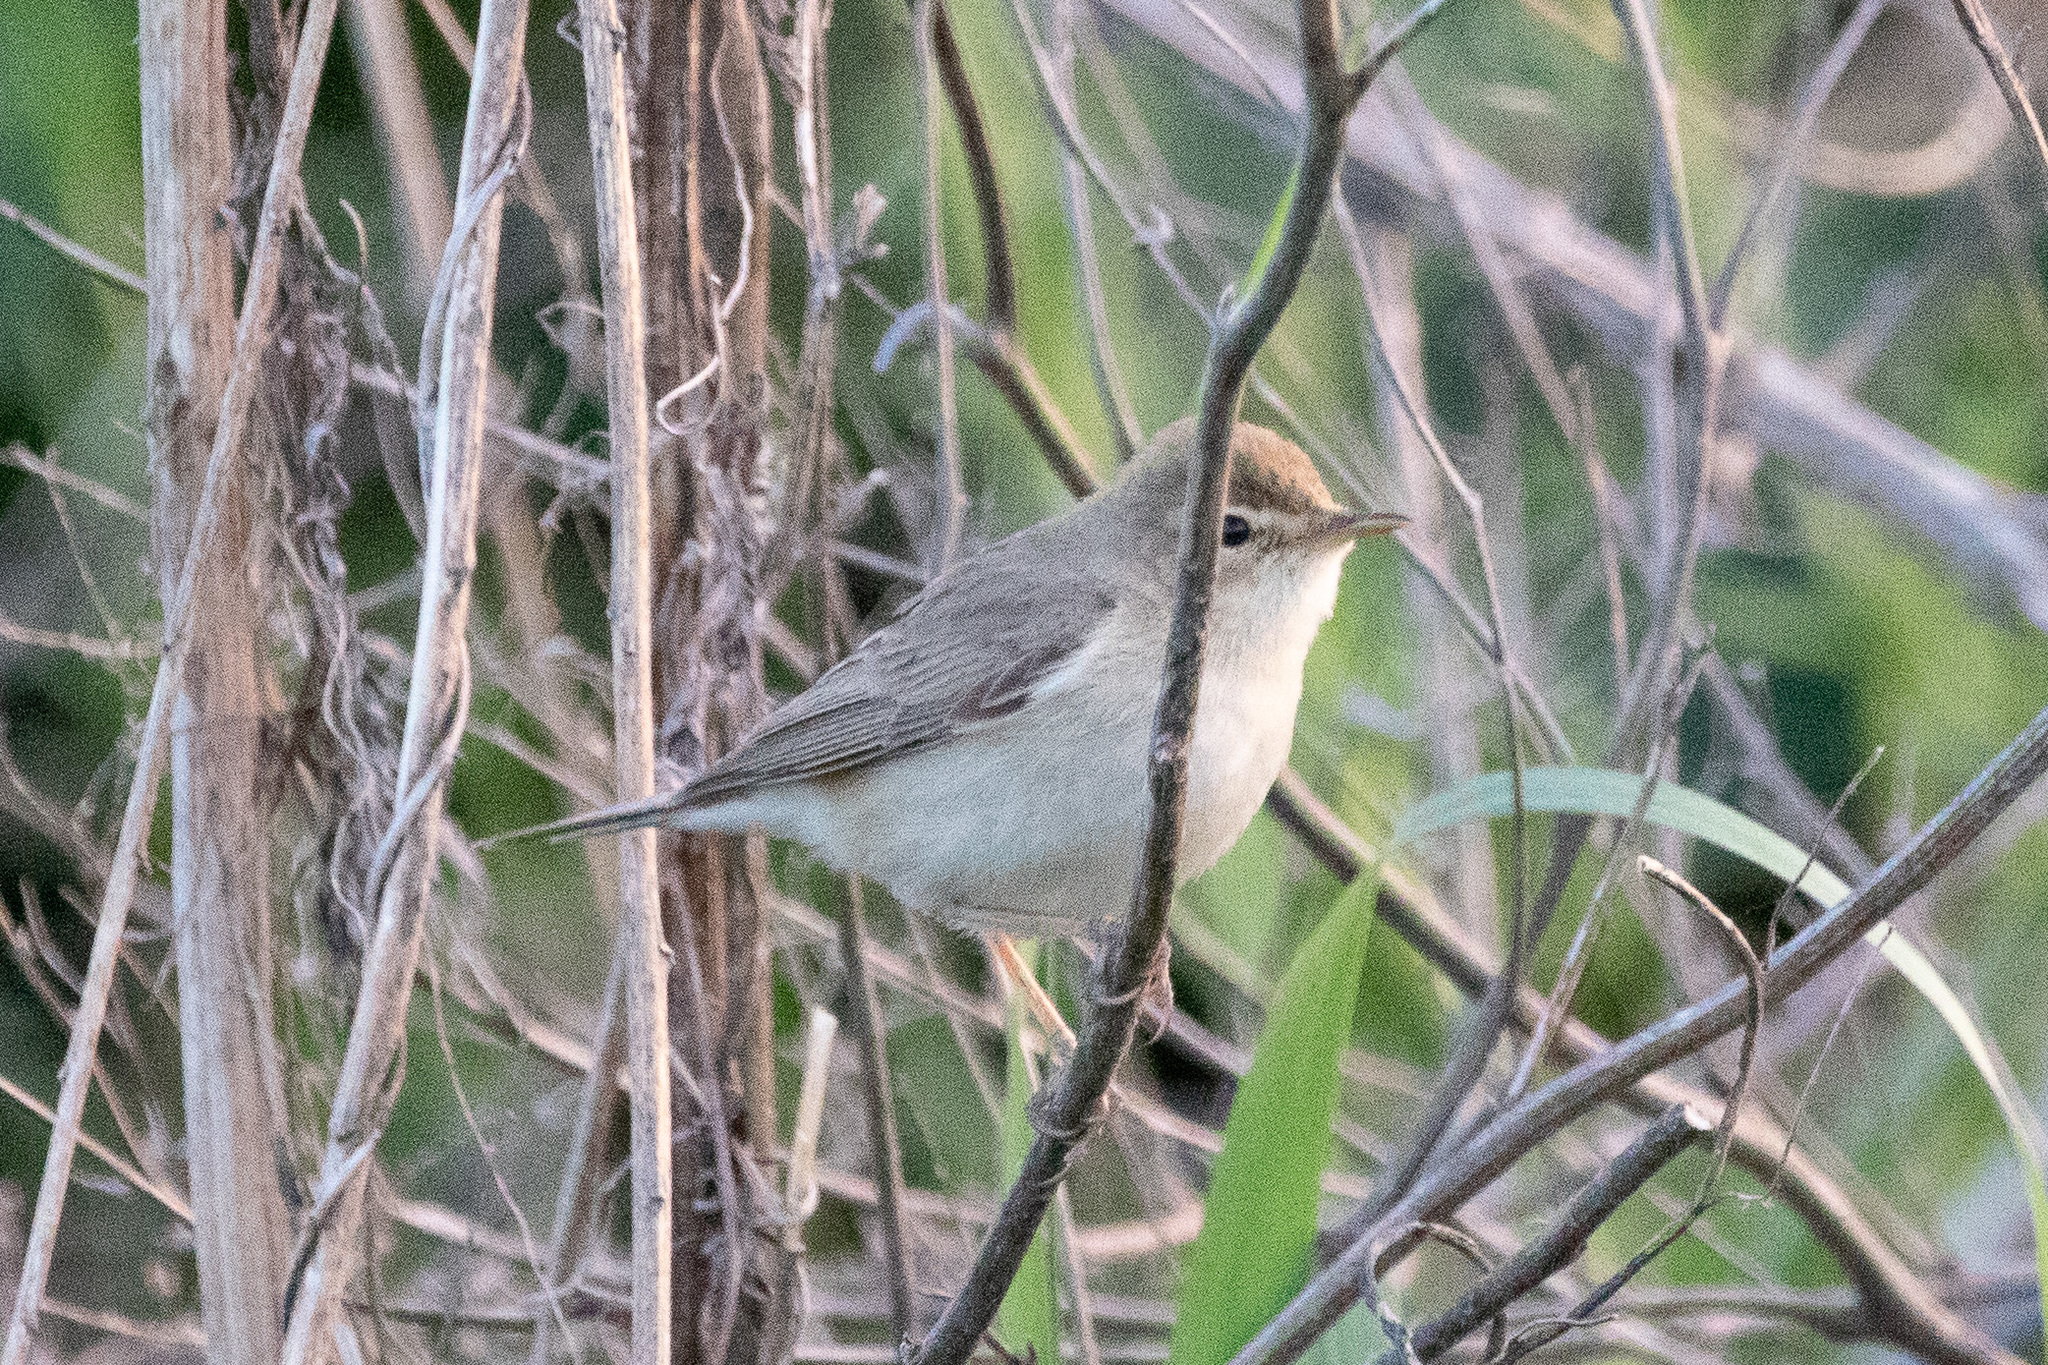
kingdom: Animalia
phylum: Chordata
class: Aves
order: Passeriformes
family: Acrocephalidae
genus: Iduna
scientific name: Iduna caligata
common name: Booted warbler
